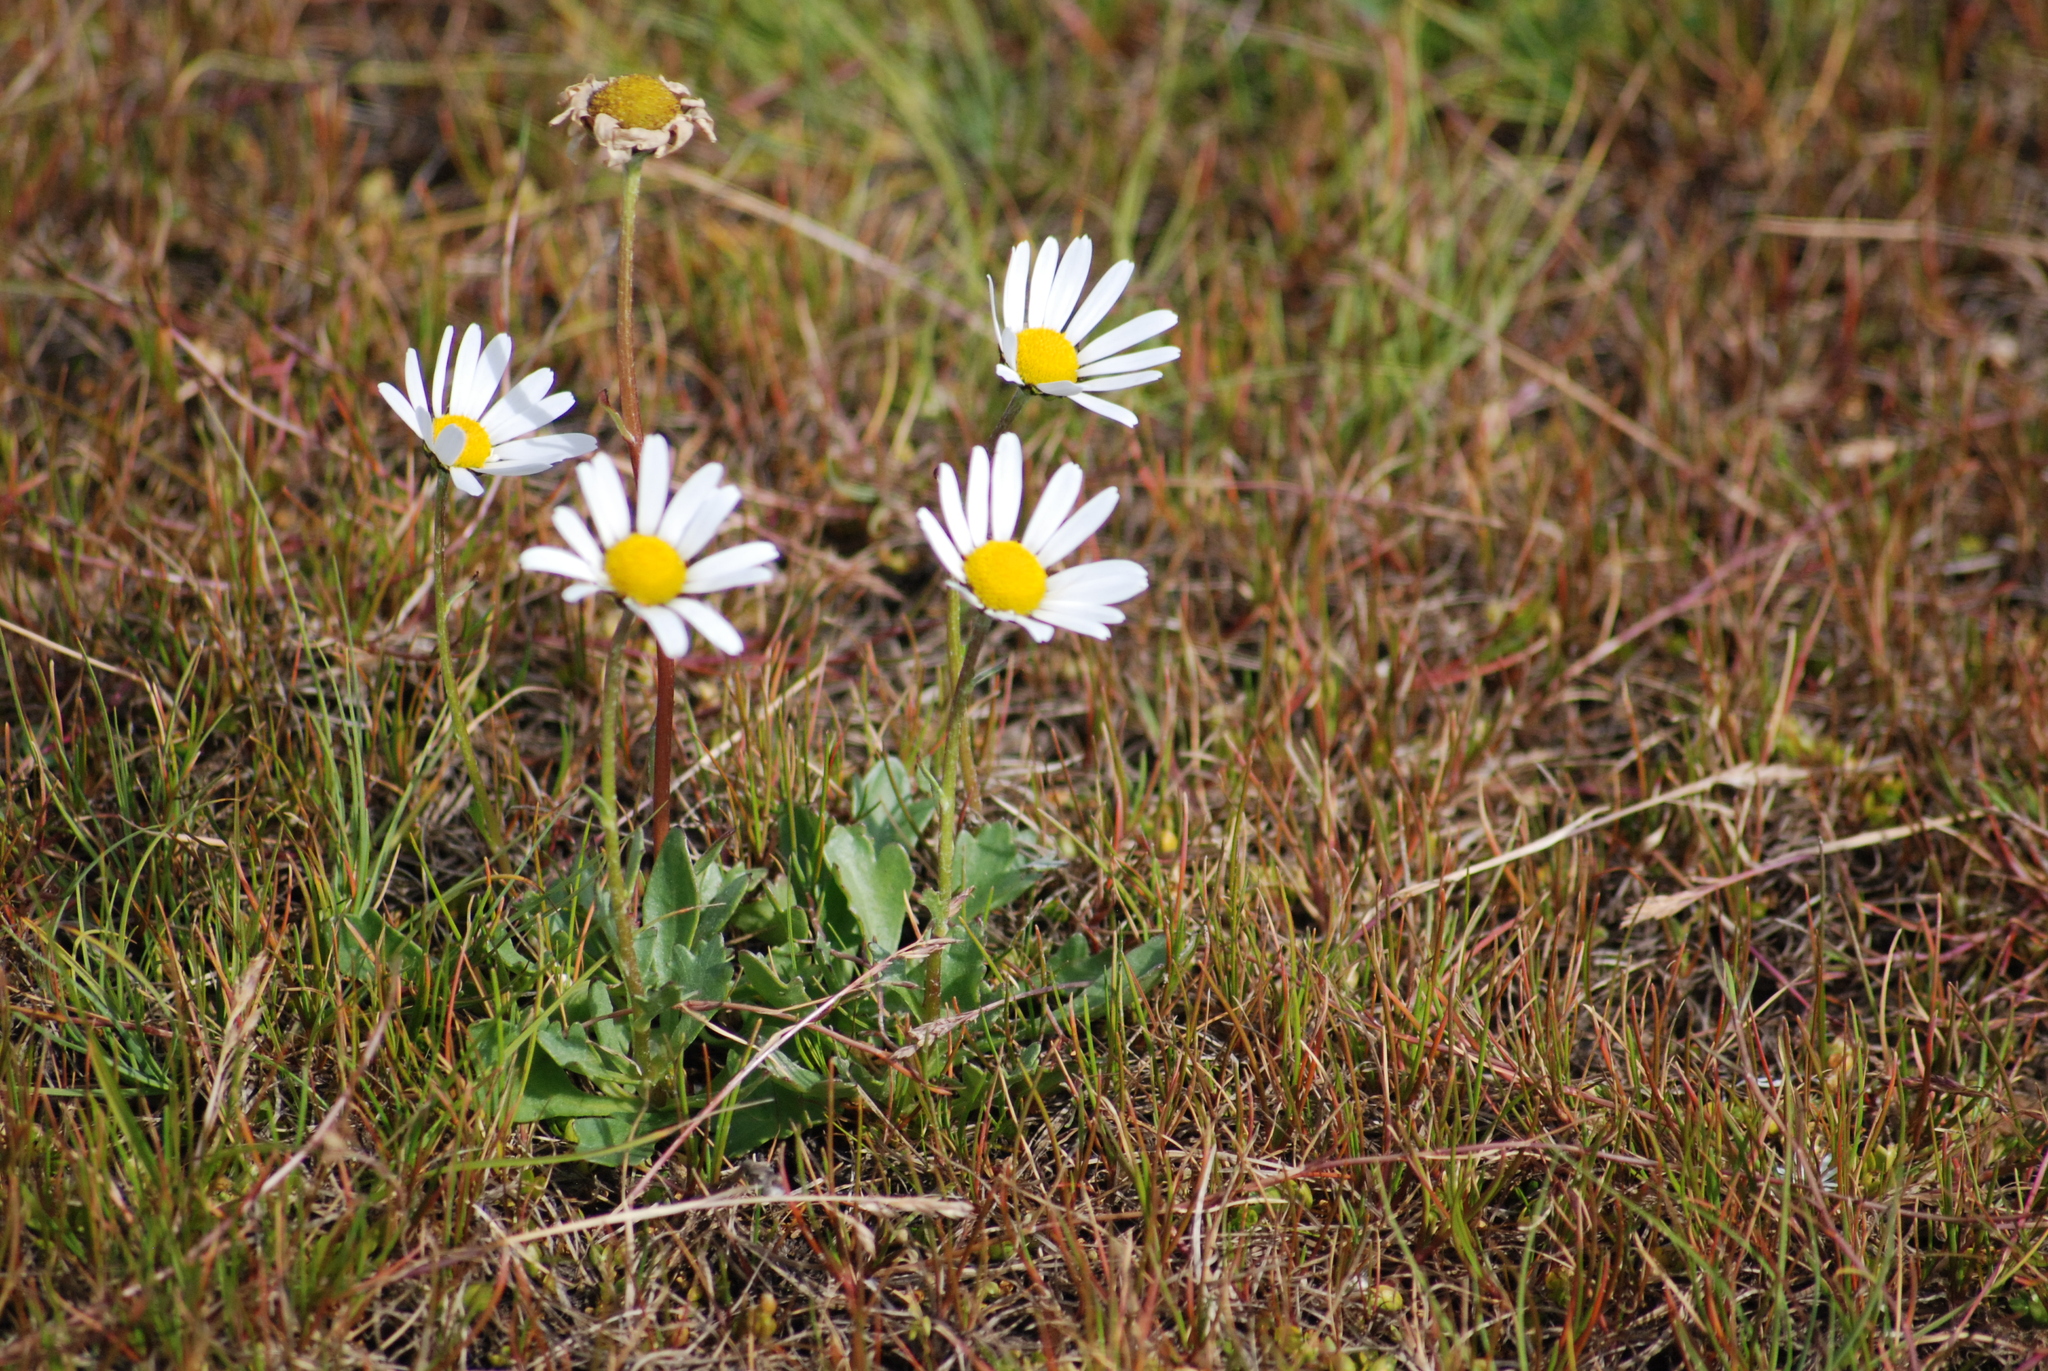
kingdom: Plantae
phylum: Tracheophyta
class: Magnoliopsida
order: Asterales
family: Asteraceae
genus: Arctanthemum
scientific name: Arctanthemum arcticum
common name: Arctic daisy
